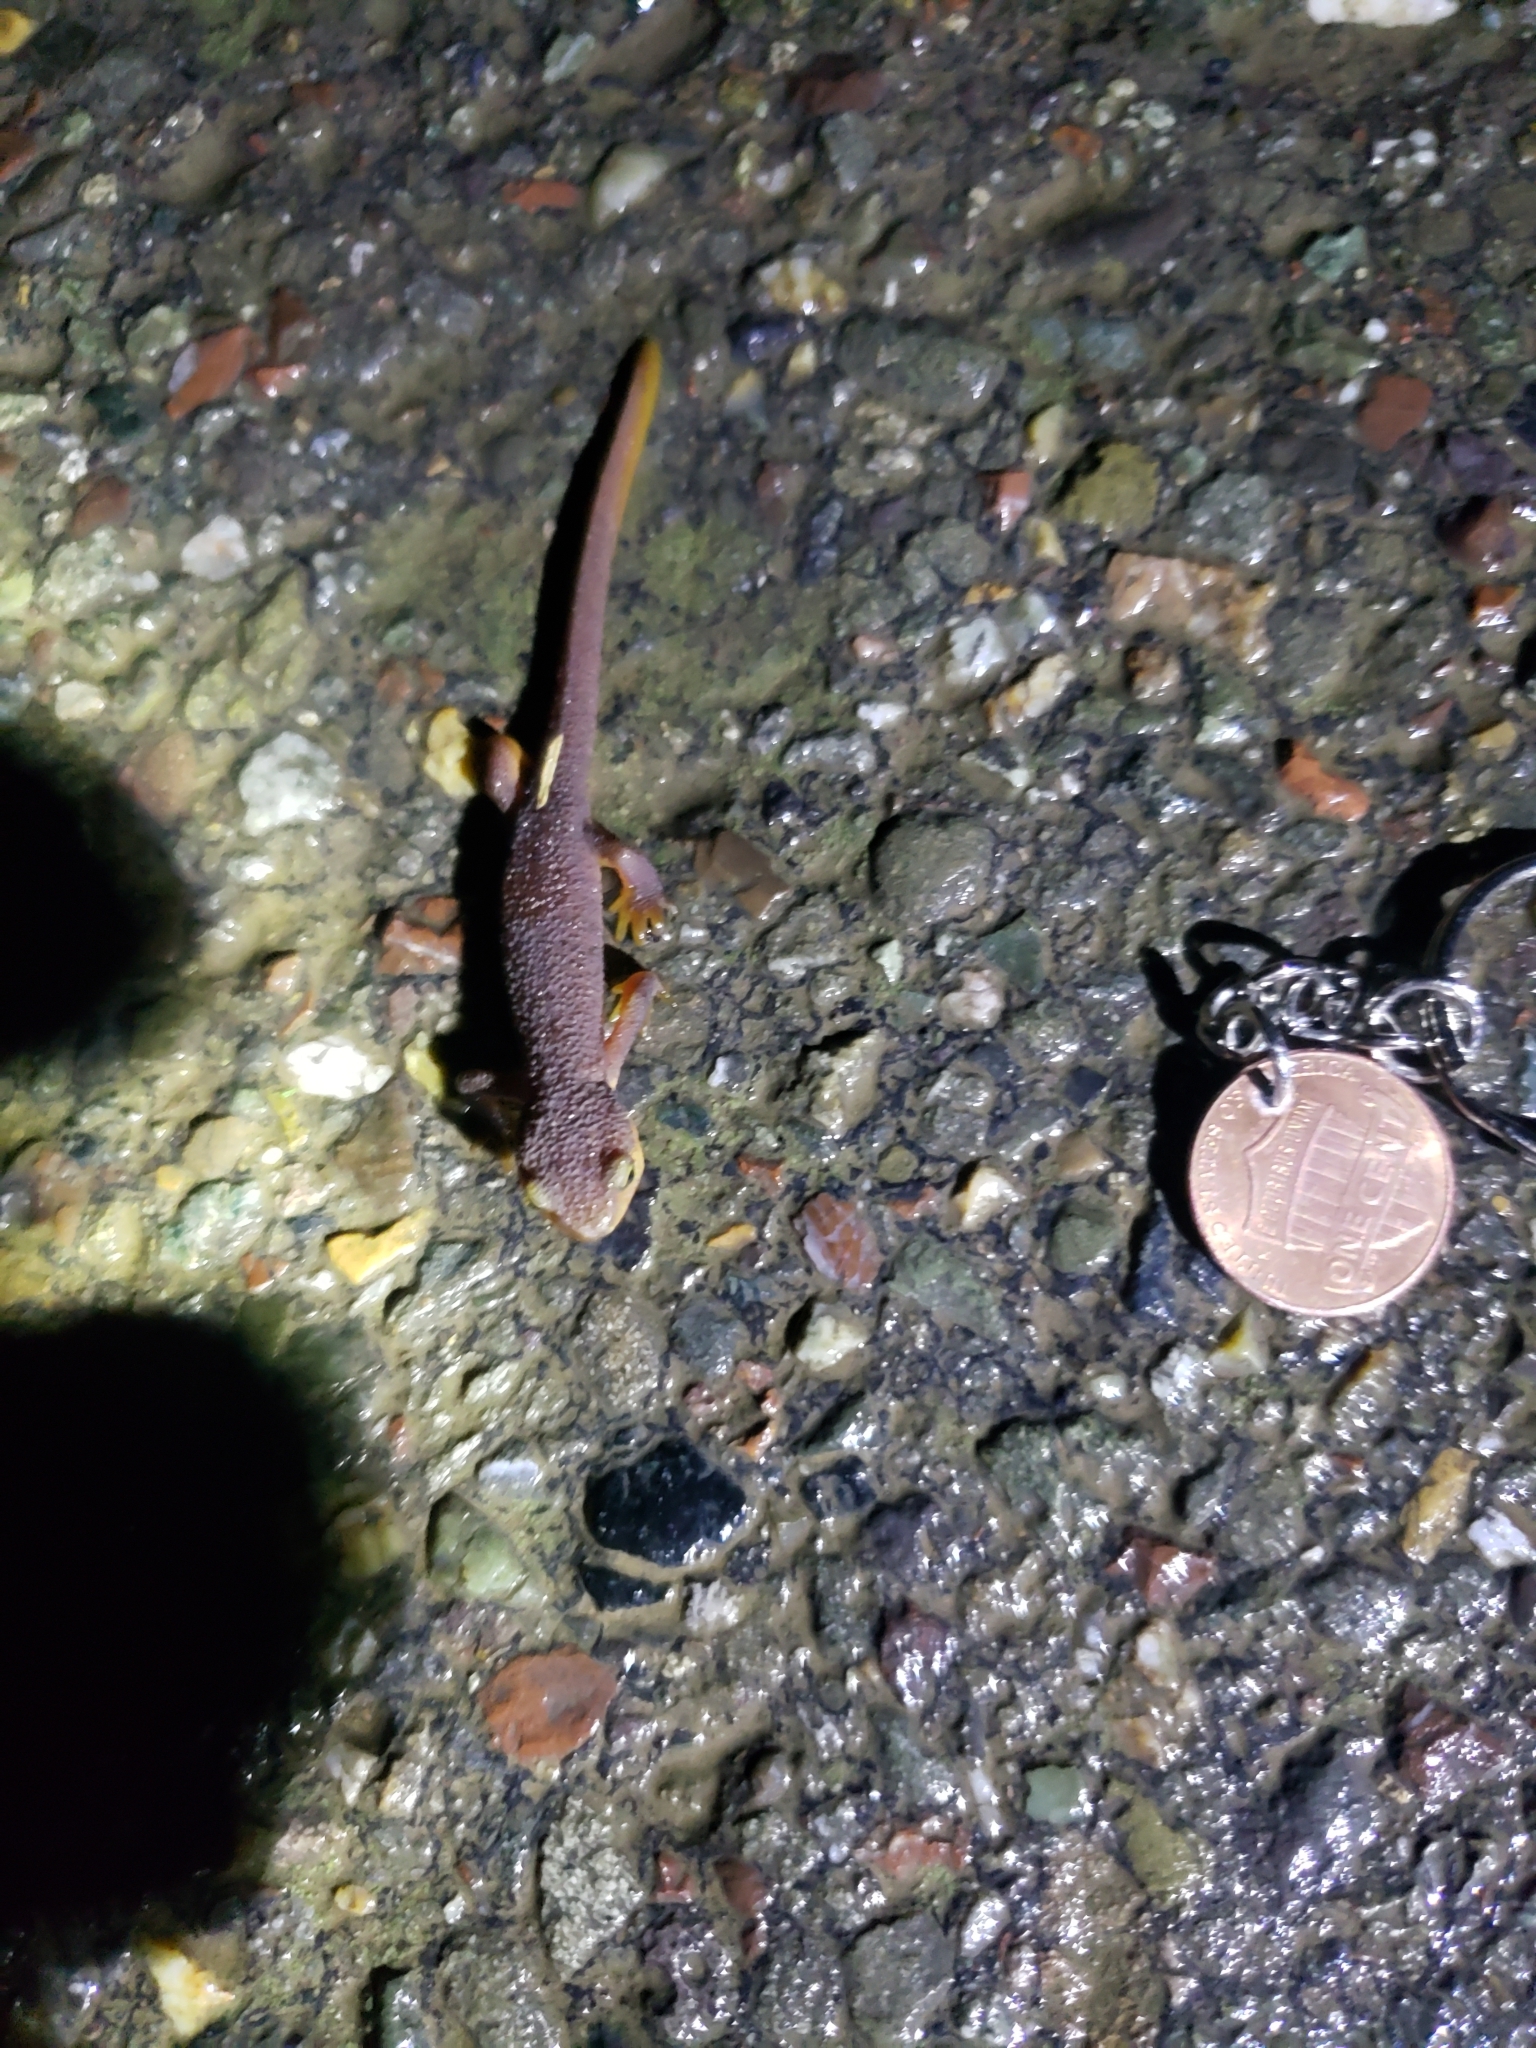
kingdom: Animalia
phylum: Chordata
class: Amphibia
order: Caudata
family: Salamandridae
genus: Taricha
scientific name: Taricha torosa
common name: California newt
